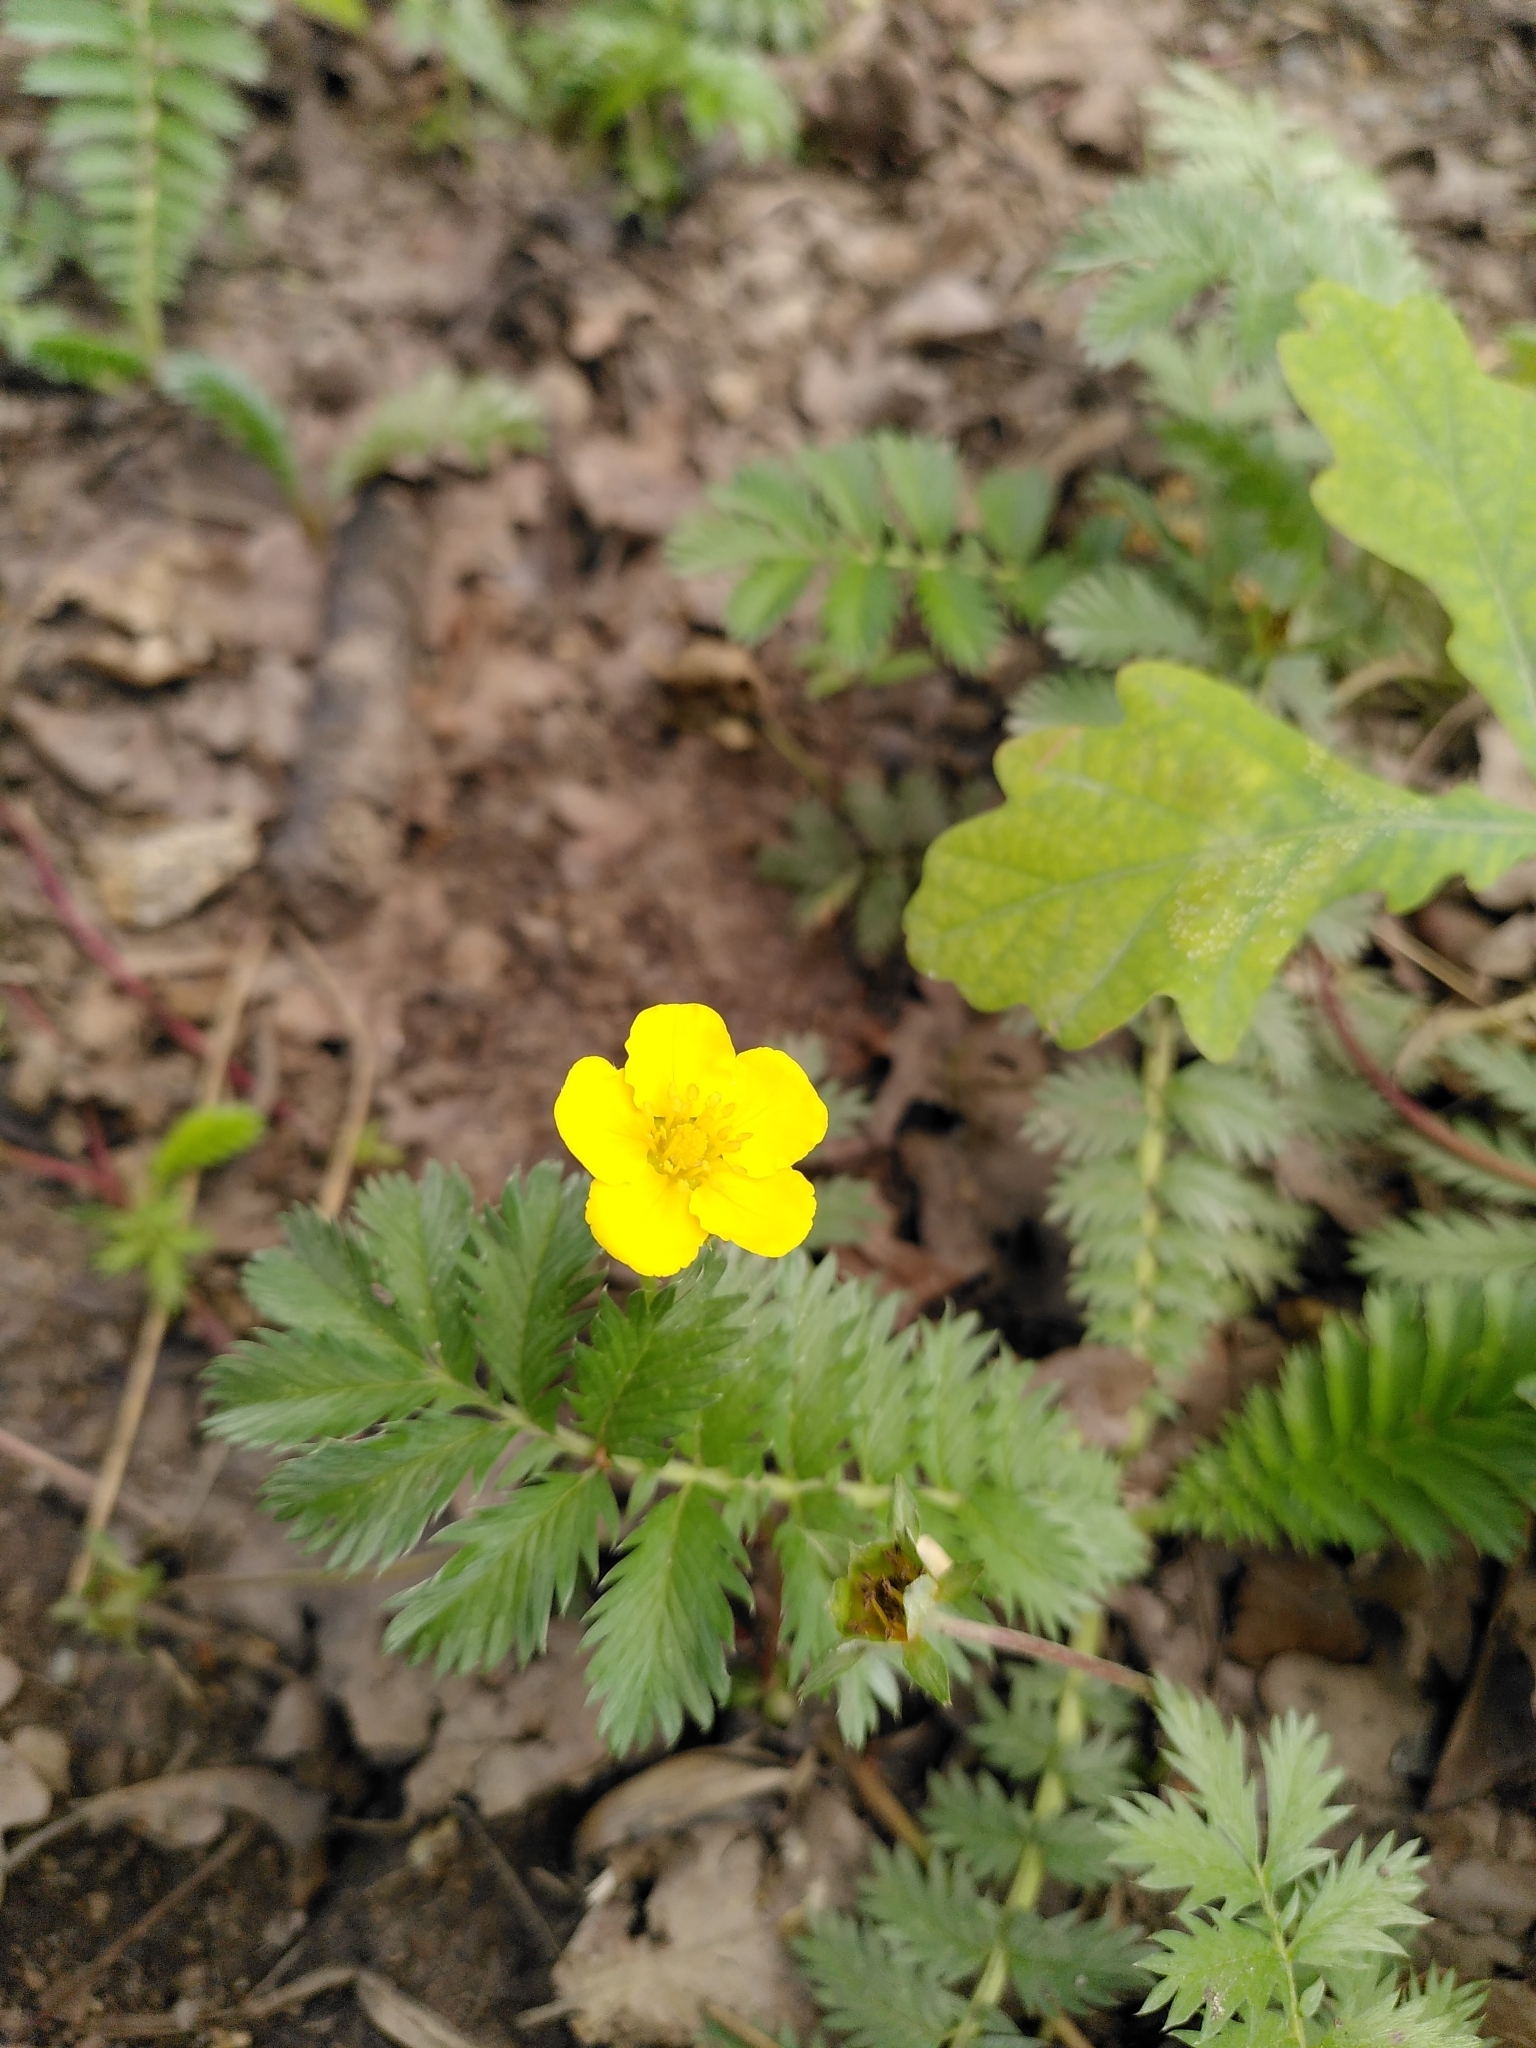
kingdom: Plantae
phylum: Tracheophyta
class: Magnoliopsida
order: Rosales
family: Rosaceae
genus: Argentina
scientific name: Argentina anserina
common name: Common silverweed
